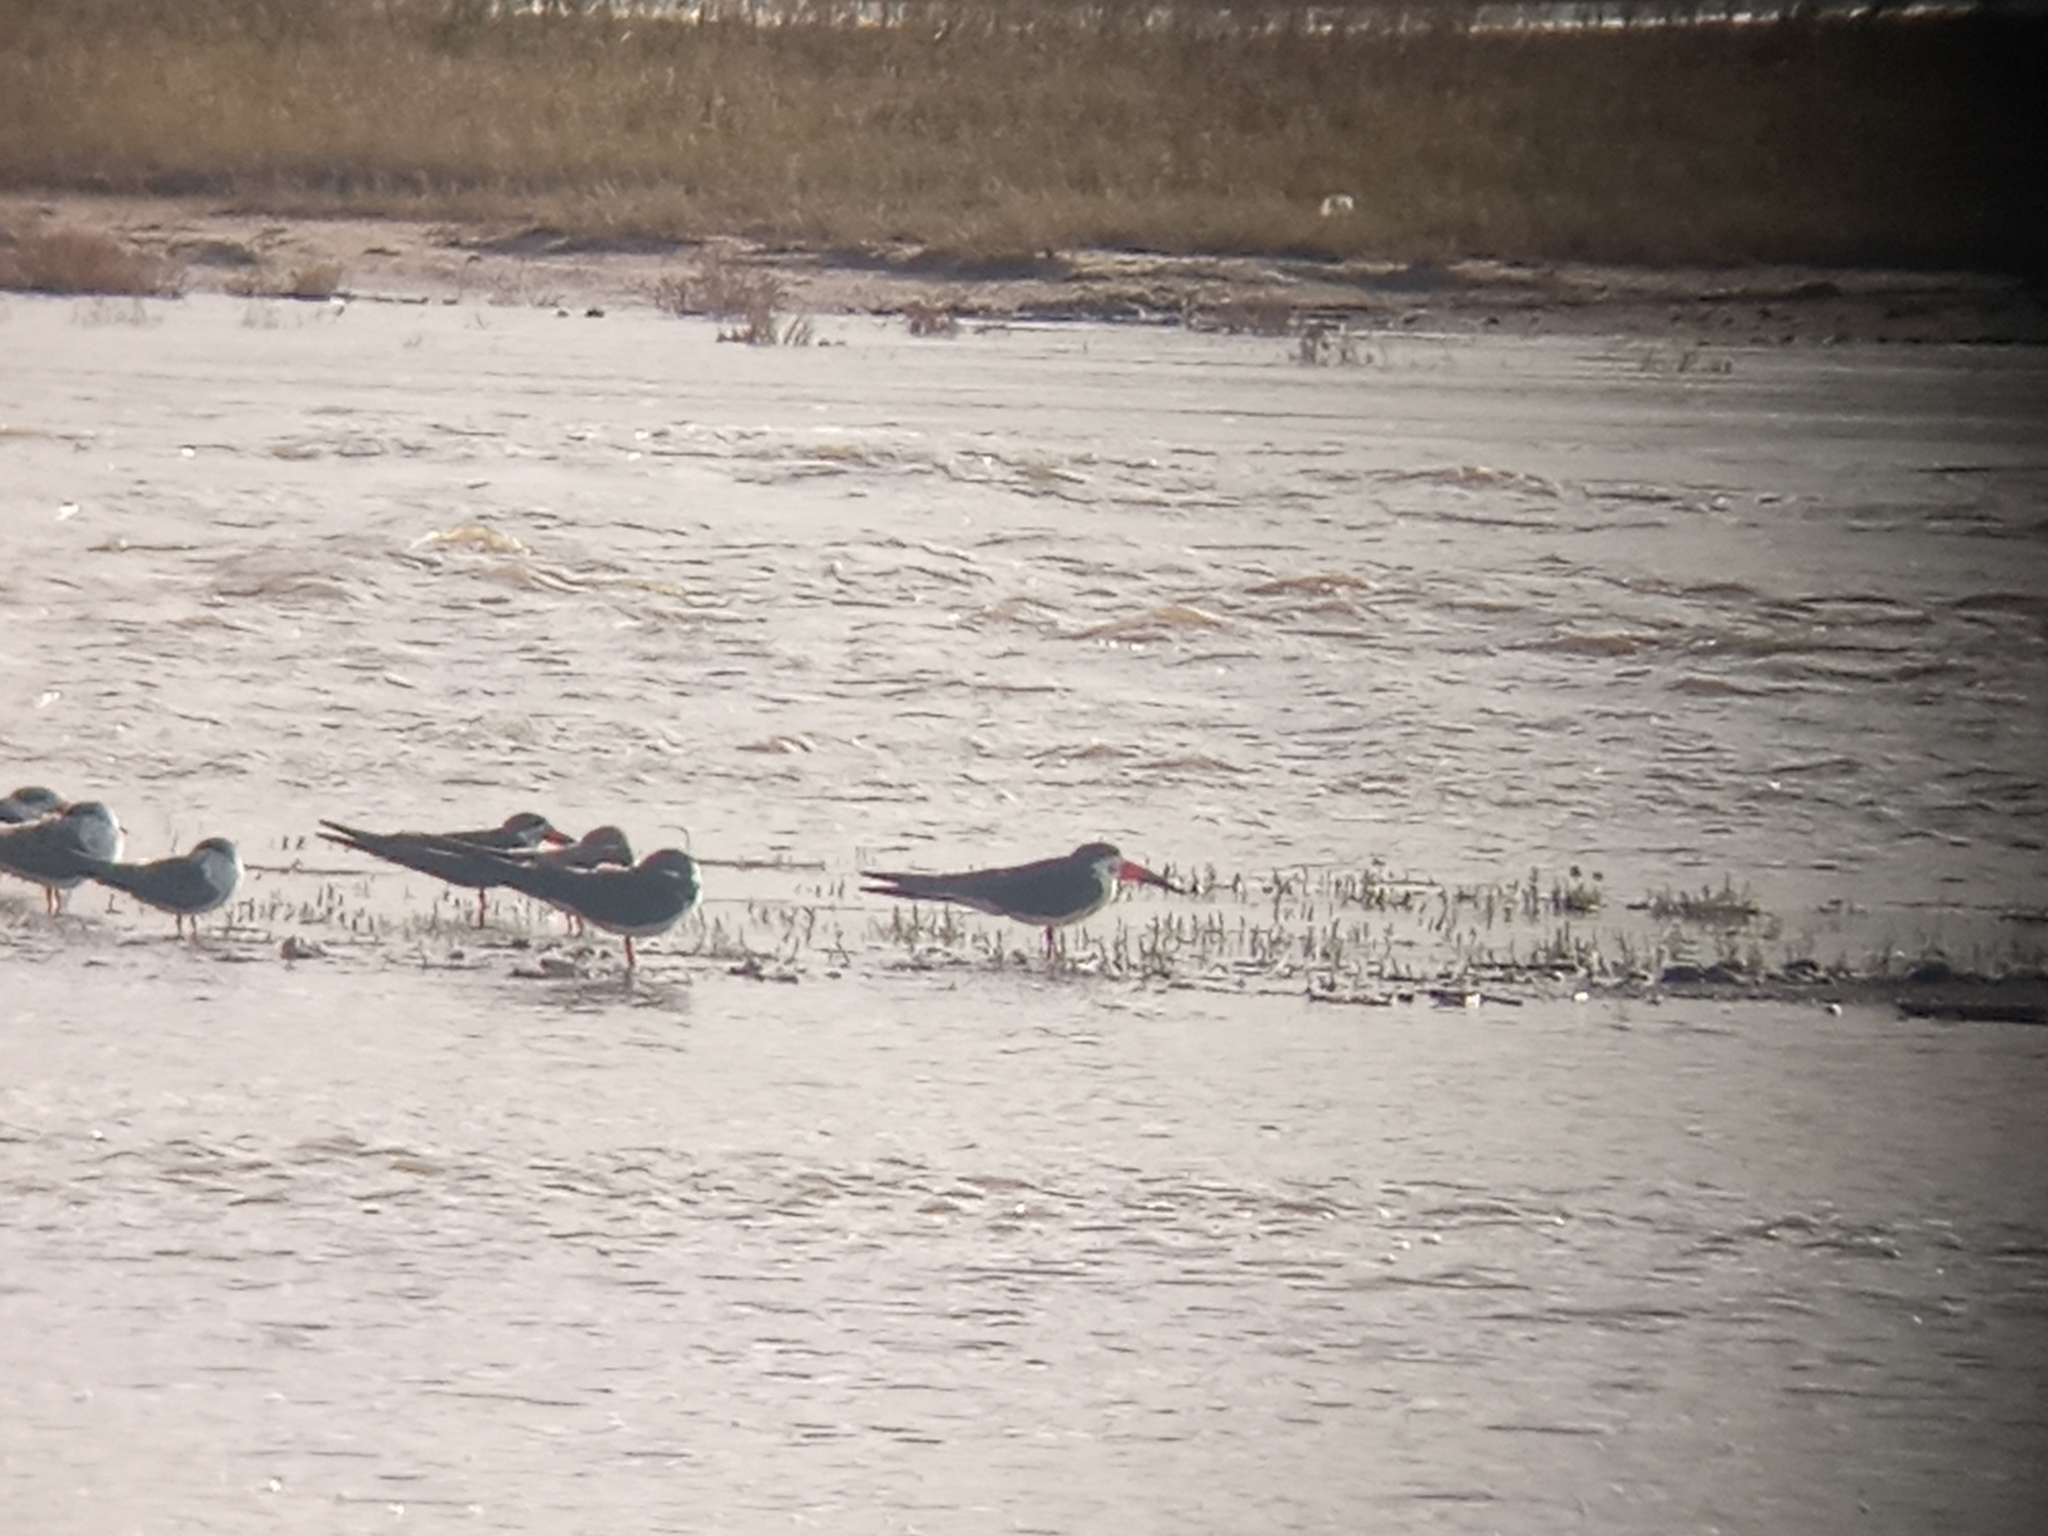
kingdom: Animalia
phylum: Chordata
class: Aves
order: Charadriiformes
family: Laridae
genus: Rynchops
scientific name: Rynchops niger
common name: Black skimmer
